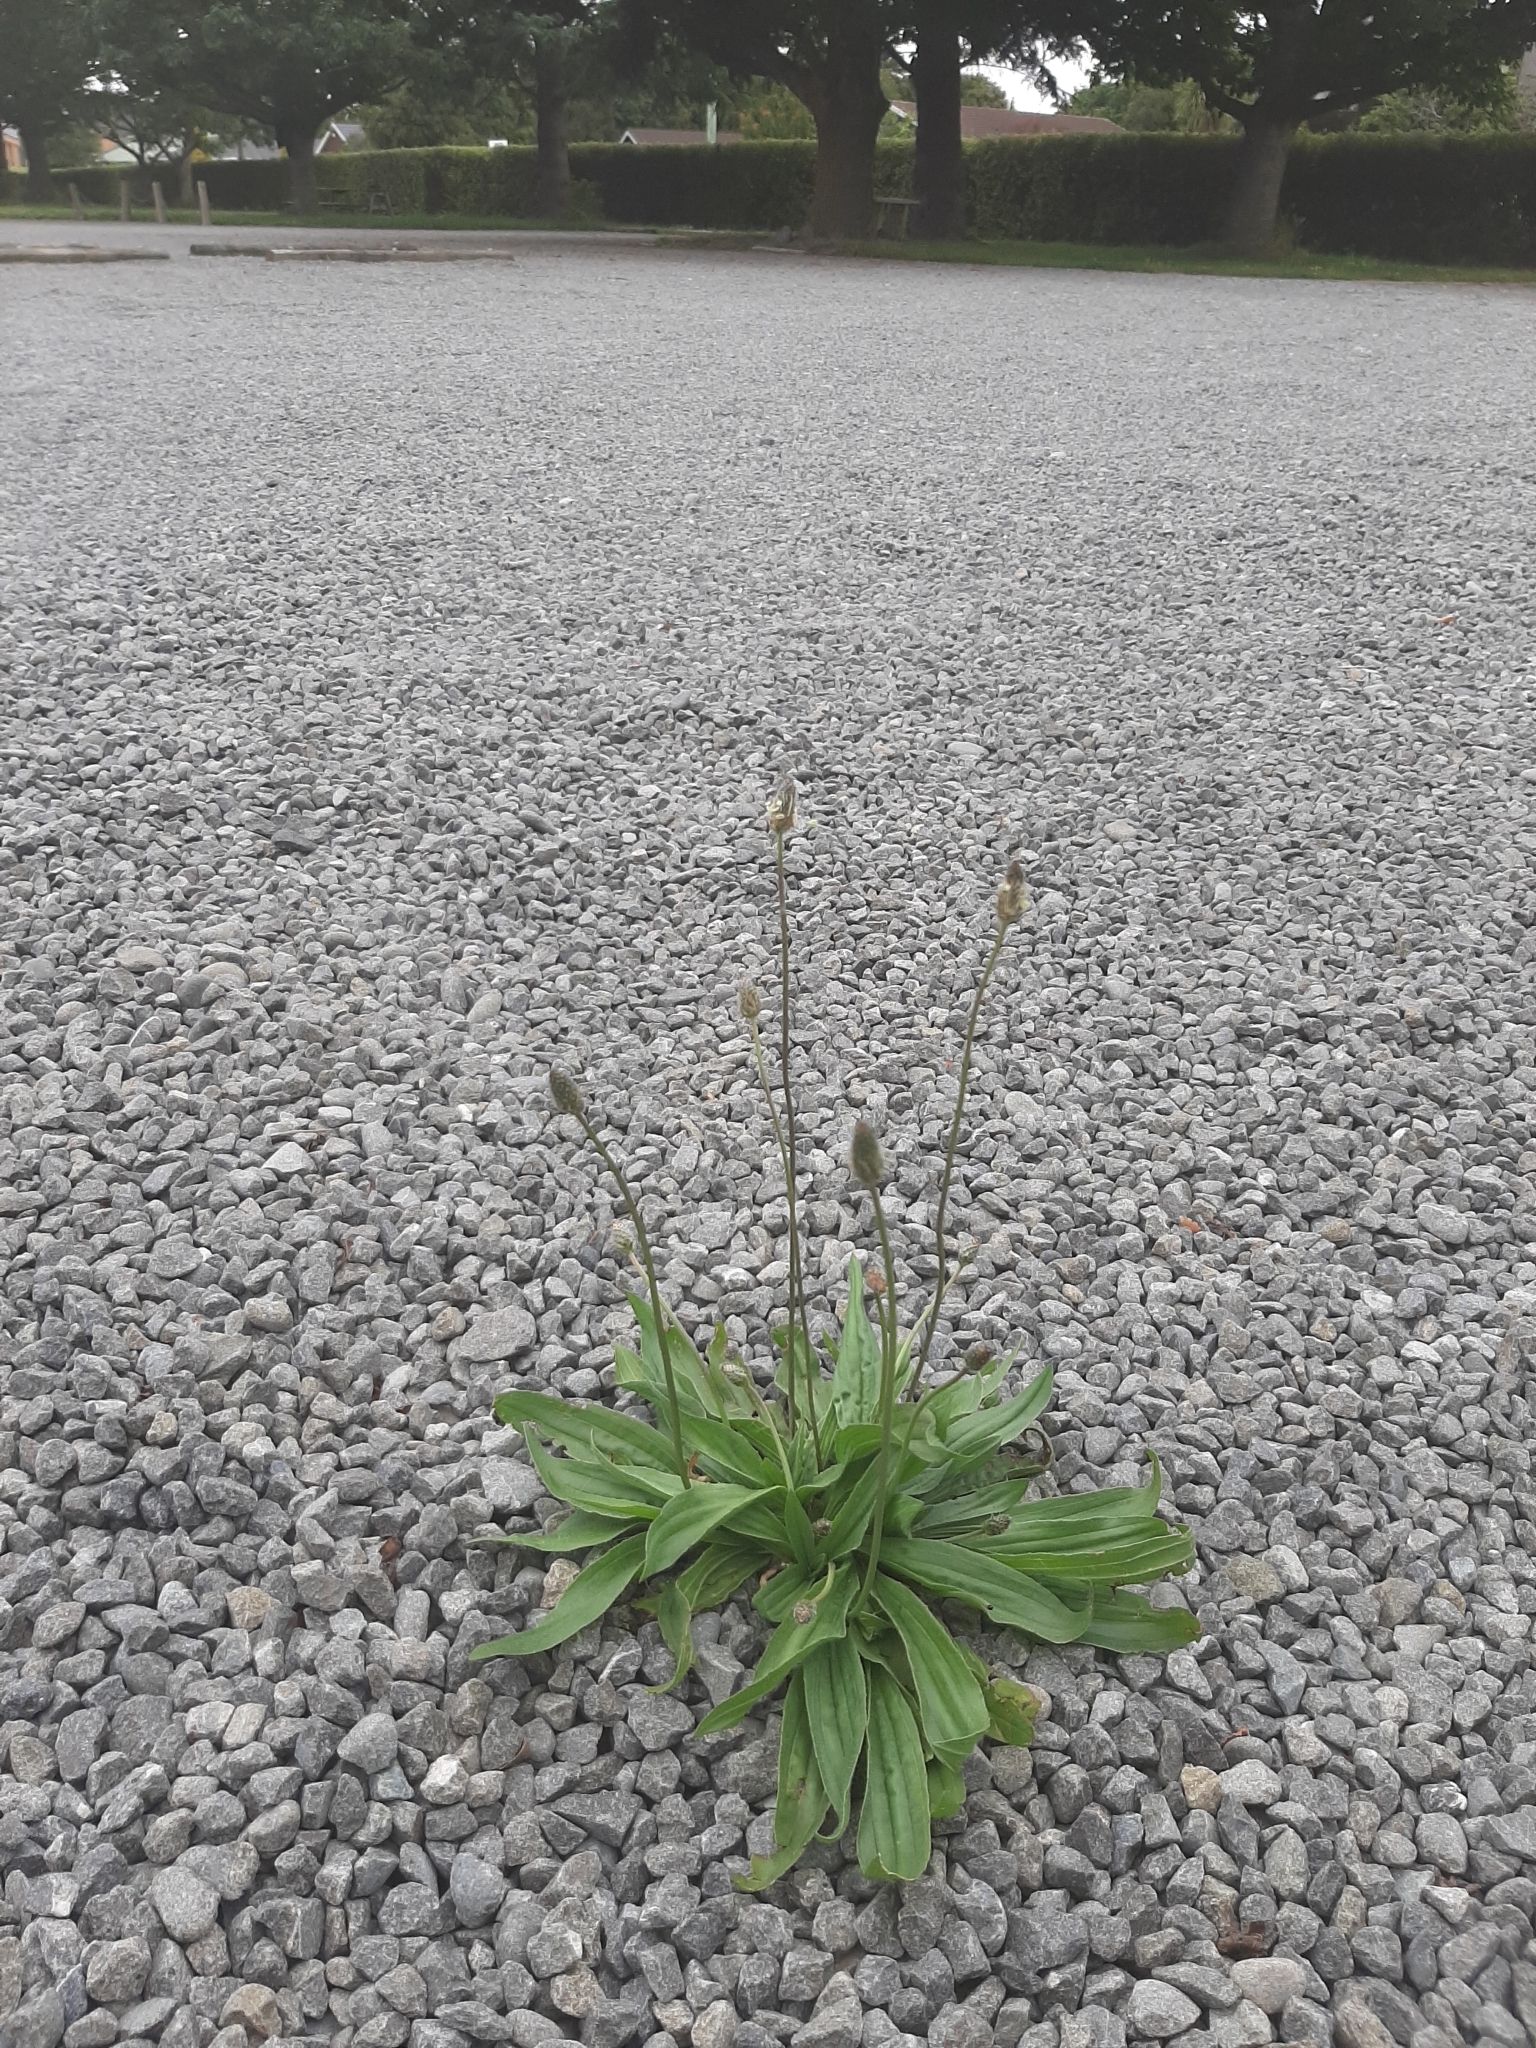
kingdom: Plantae
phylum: Tracheophyta
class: Magnoliopsida
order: Lamiales
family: Plantaginaceae
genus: Plantago
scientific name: Plantago lanceolata
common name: Ribwort plantain
